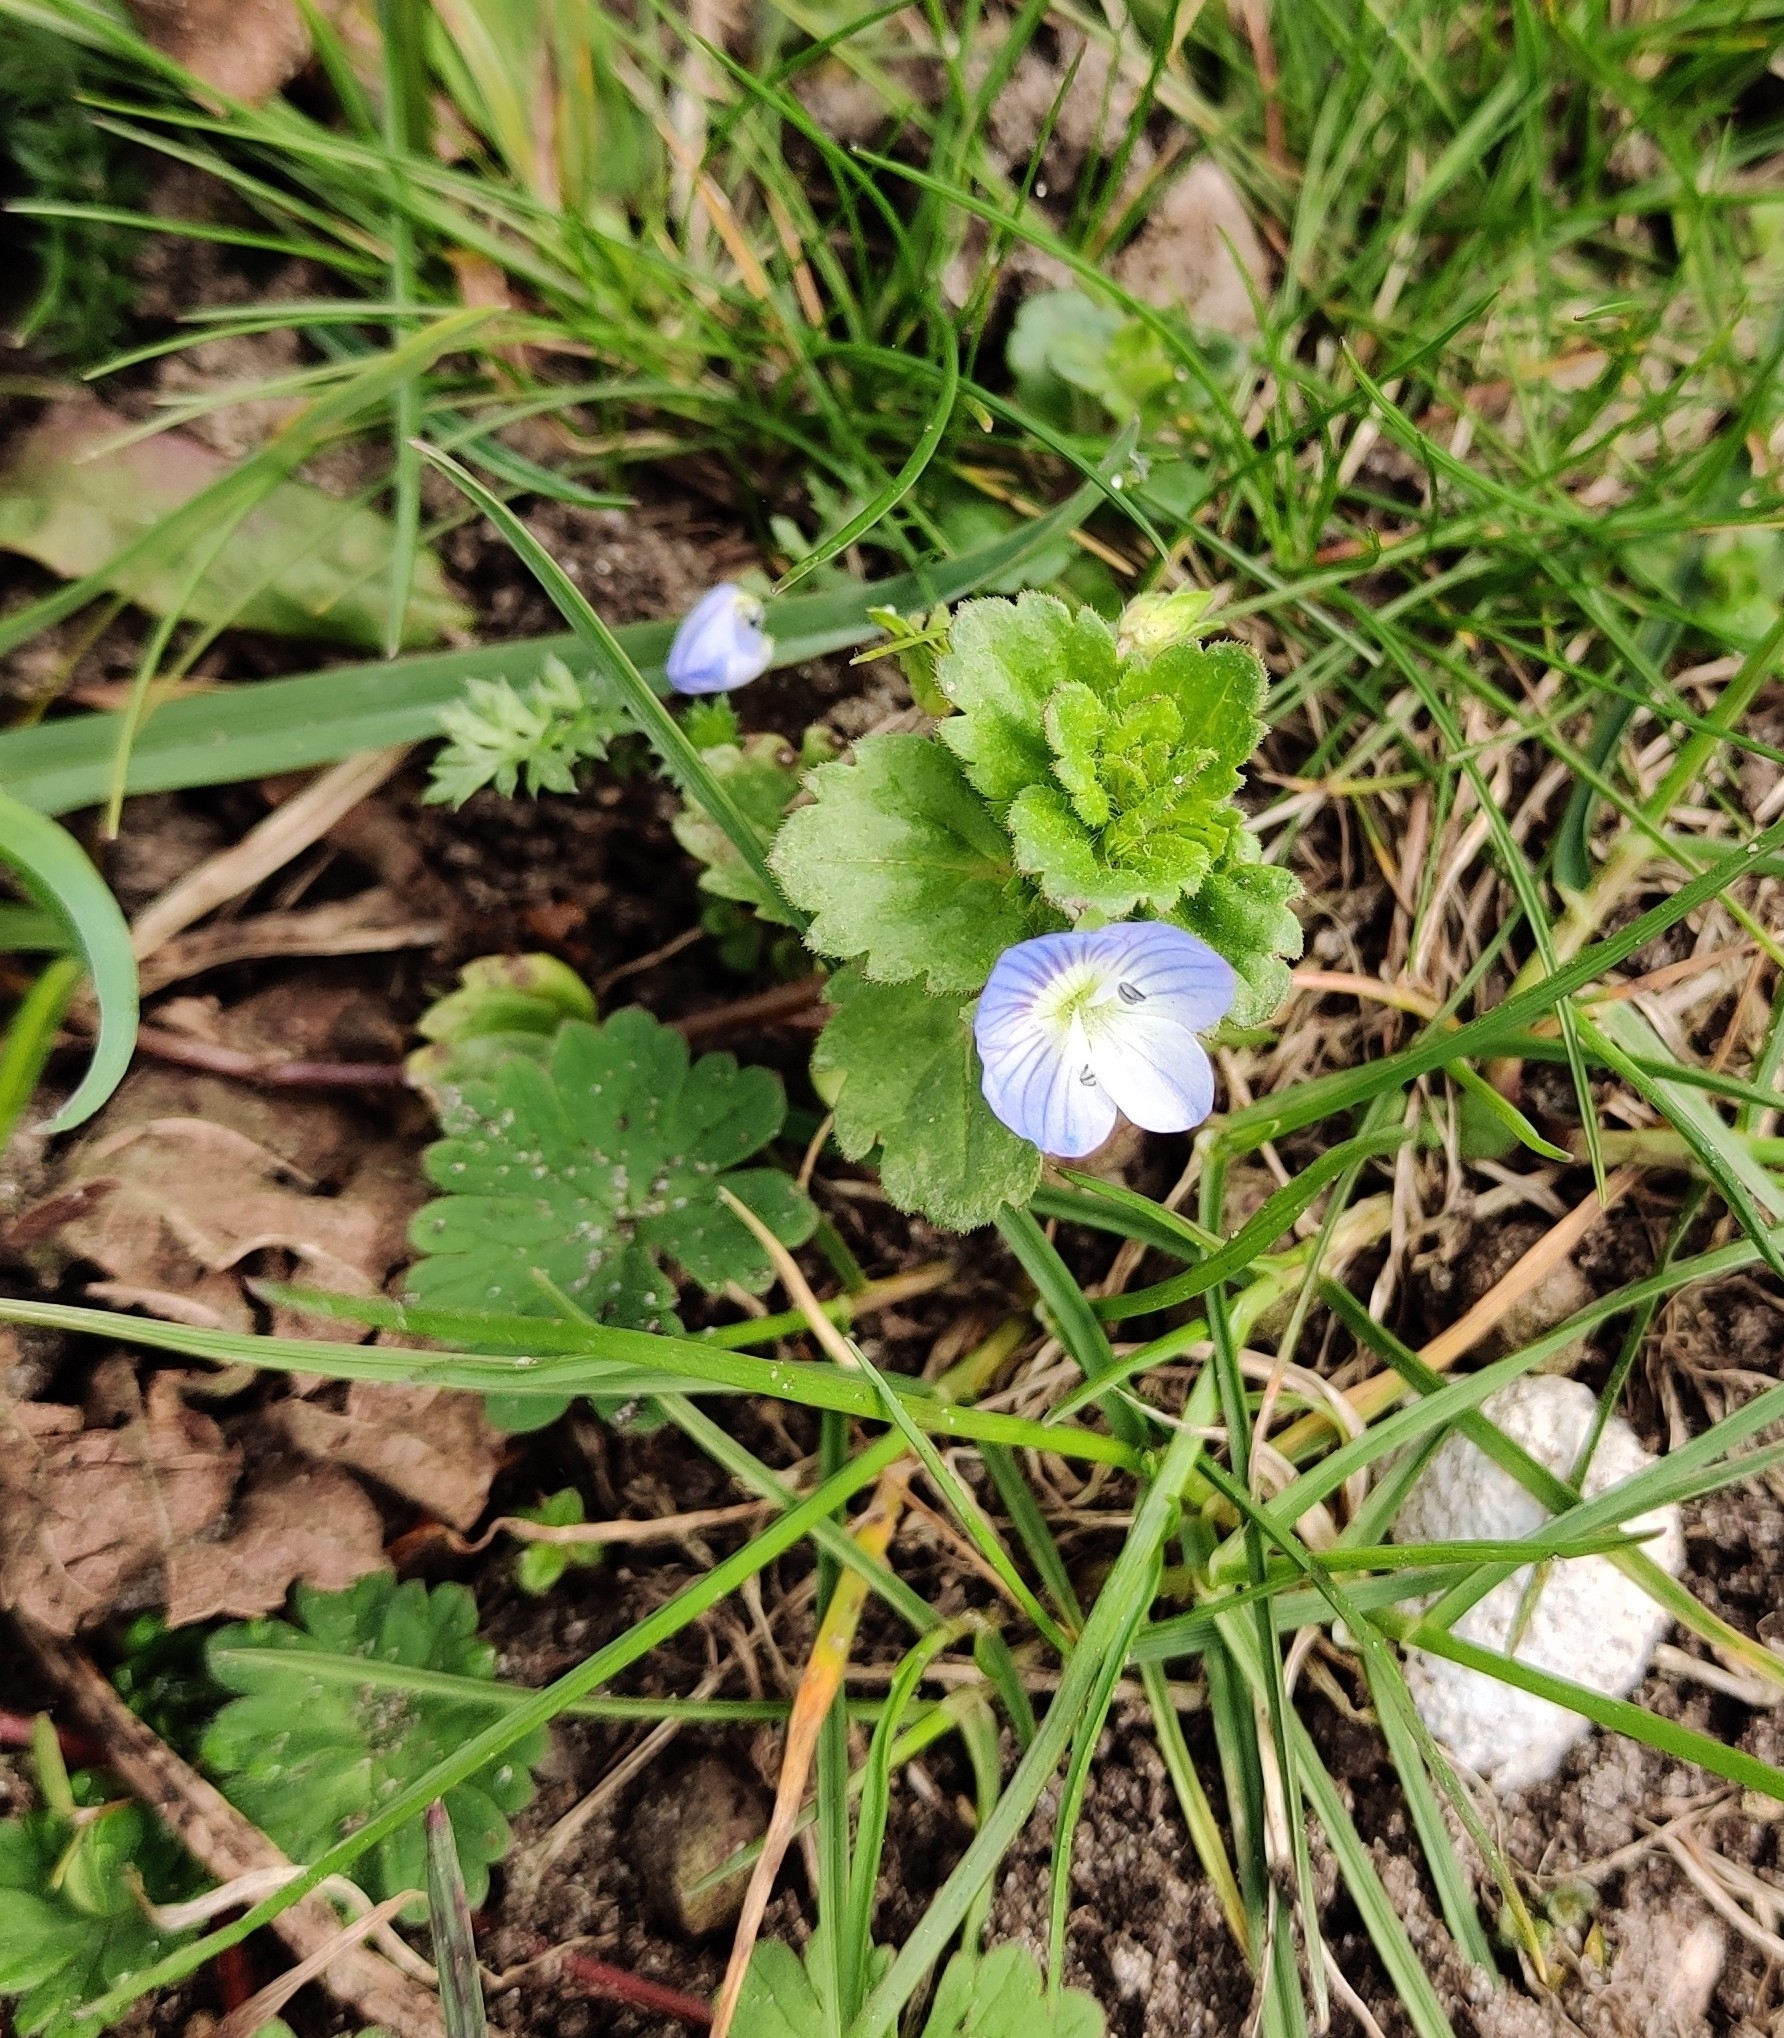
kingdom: Plantae
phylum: Tracheophyta
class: Magnoliopsida
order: Lamiales
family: Plantaginaceae
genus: Veronica
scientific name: Veronica persica
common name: Common field-speedwell
